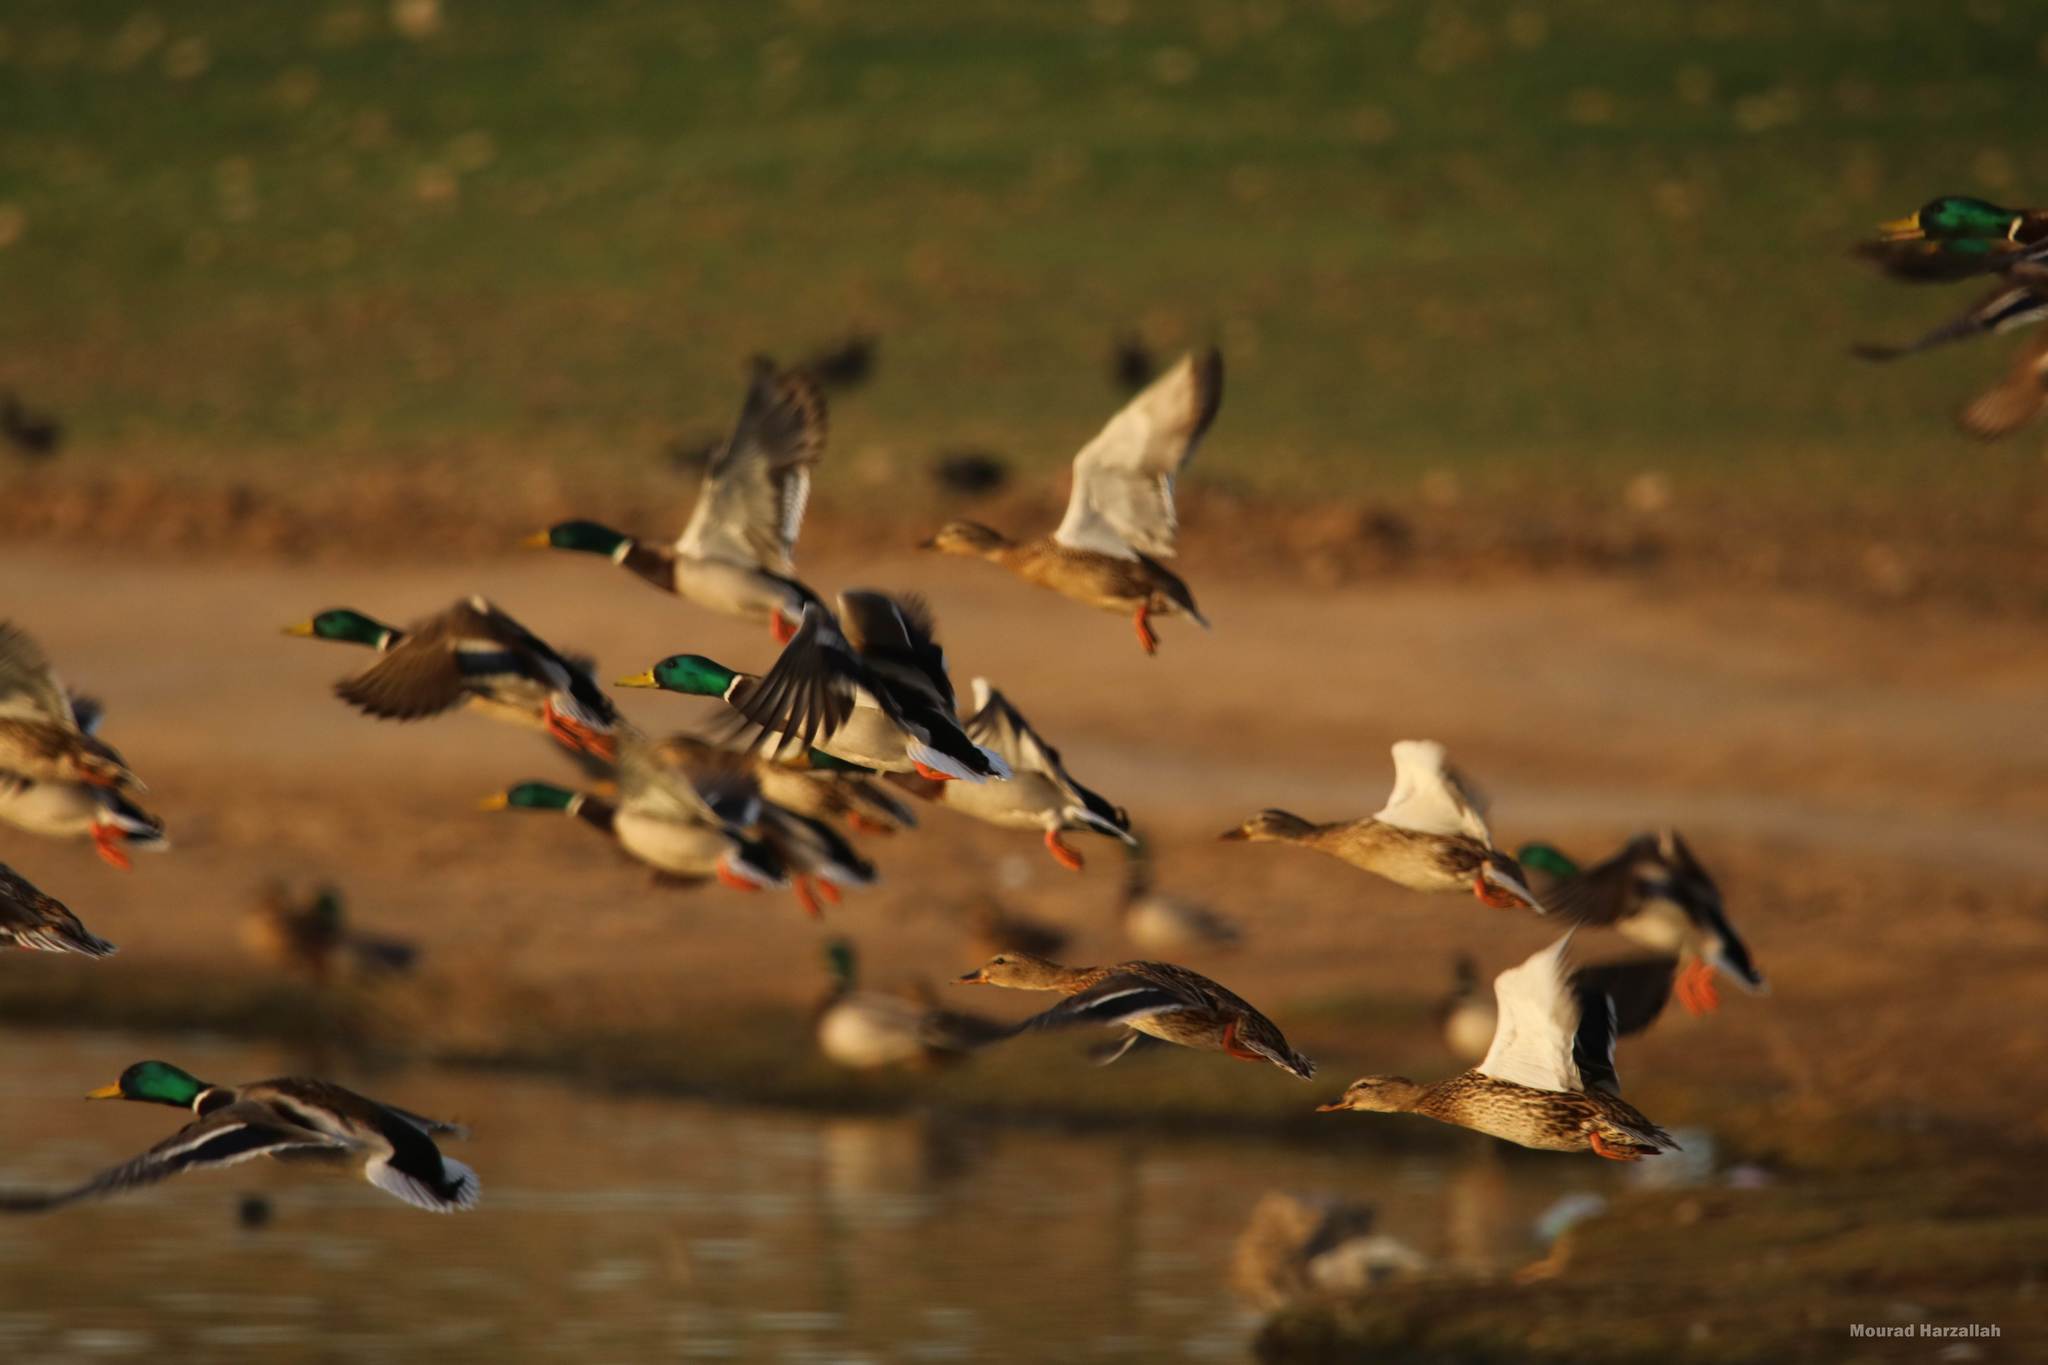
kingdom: Animalia
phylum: Chordata
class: Aves
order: Anseriformes
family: Anatidae
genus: Anas
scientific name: Anas platyrhynchos
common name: Mallard
